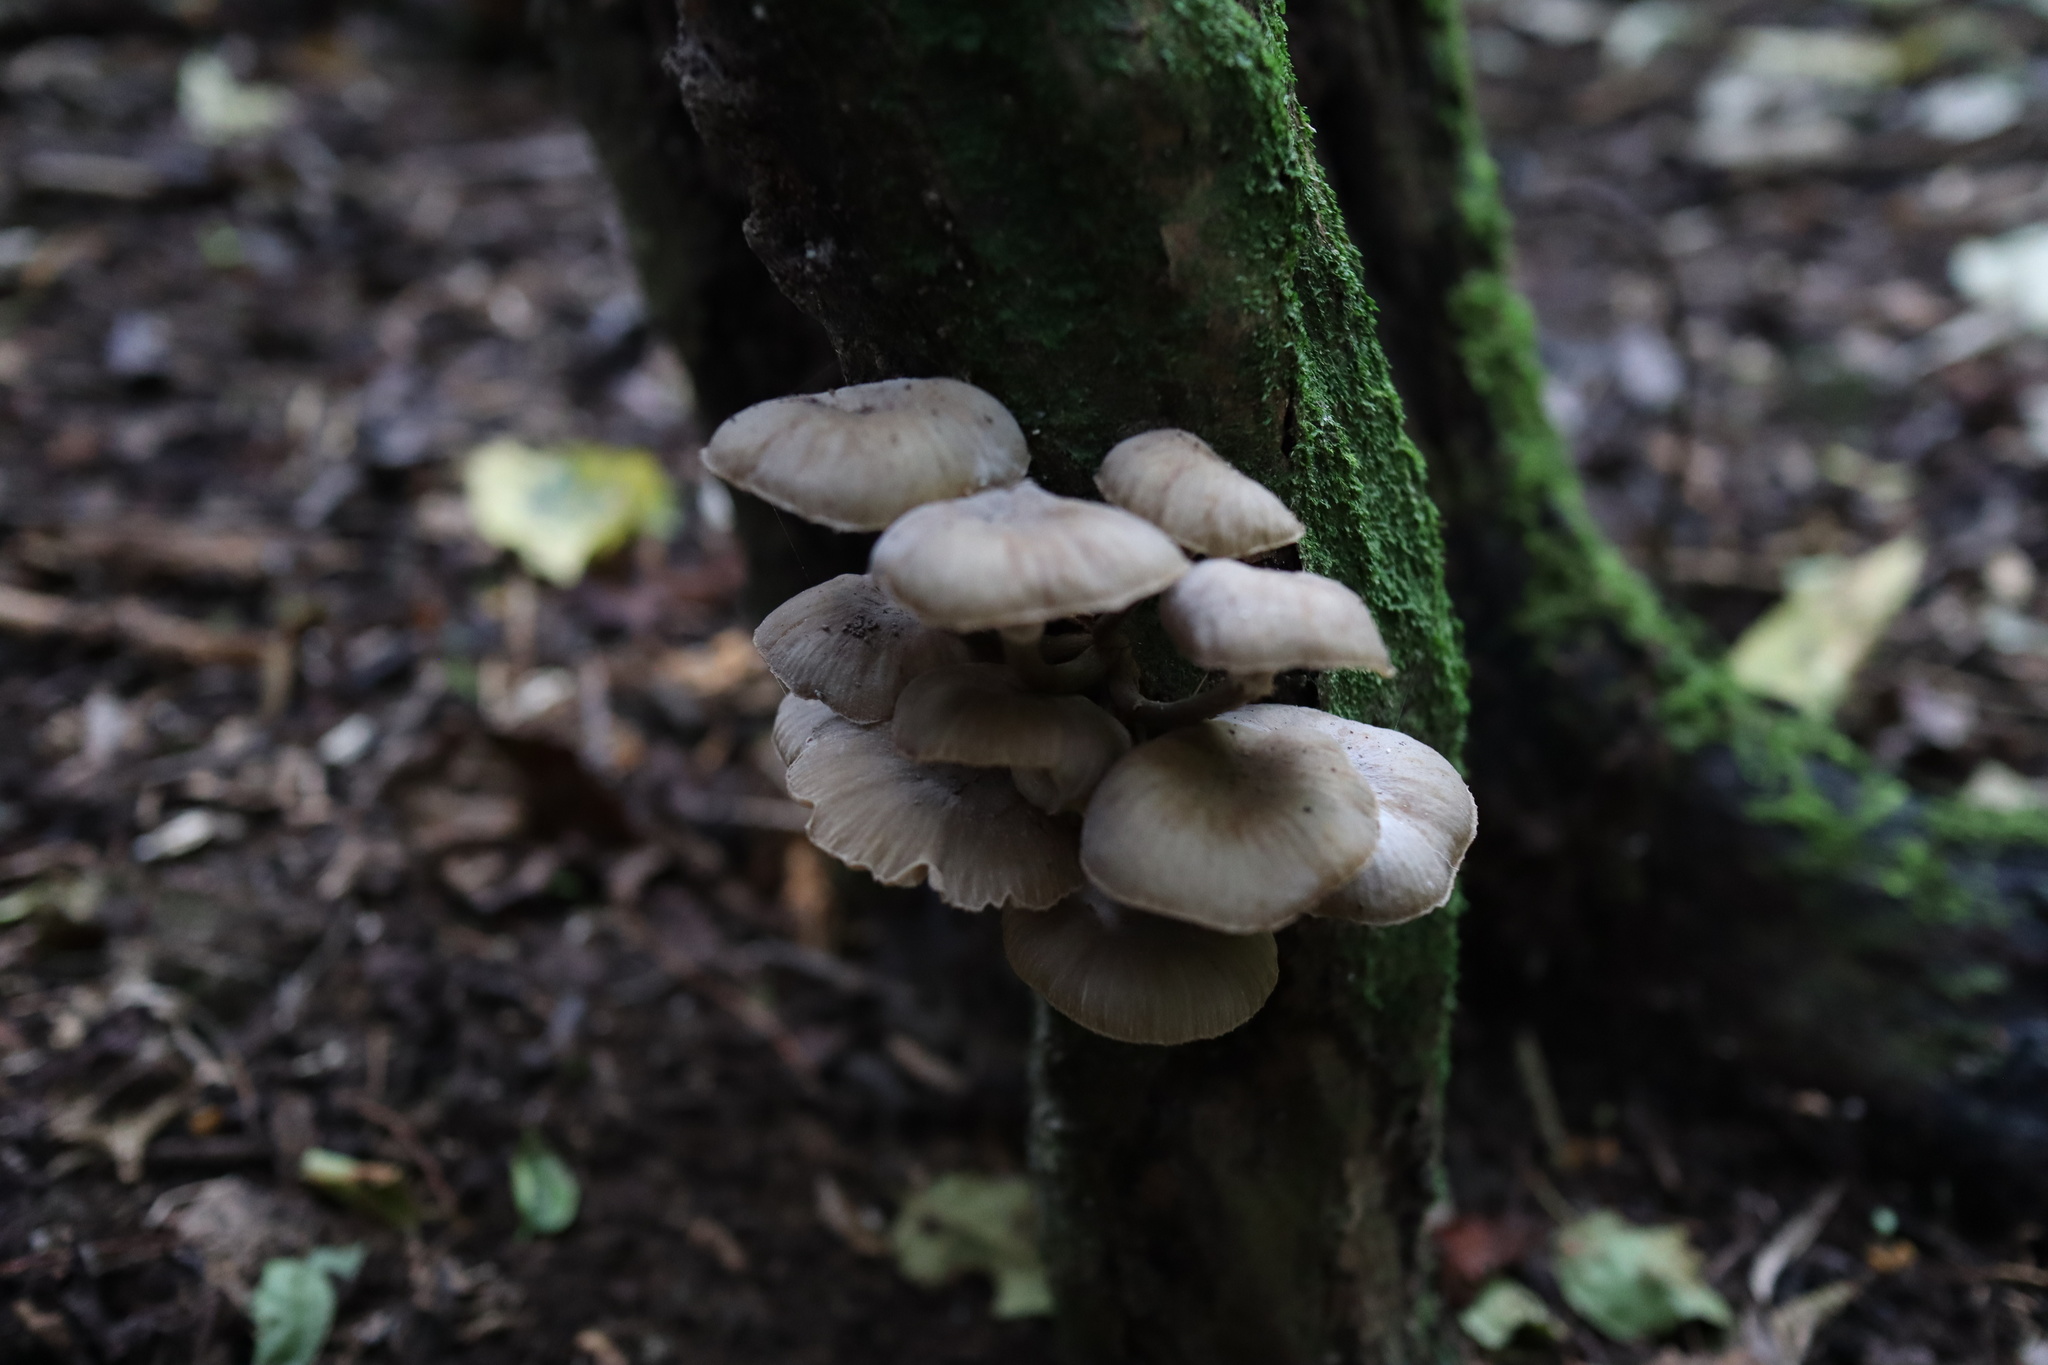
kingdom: Fungi
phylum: Basidiomycota
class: Agaricomycetes
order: Agaricales
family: Physalacriaceae
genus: Armillaria
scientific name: Armillaria novae-zelandiae
